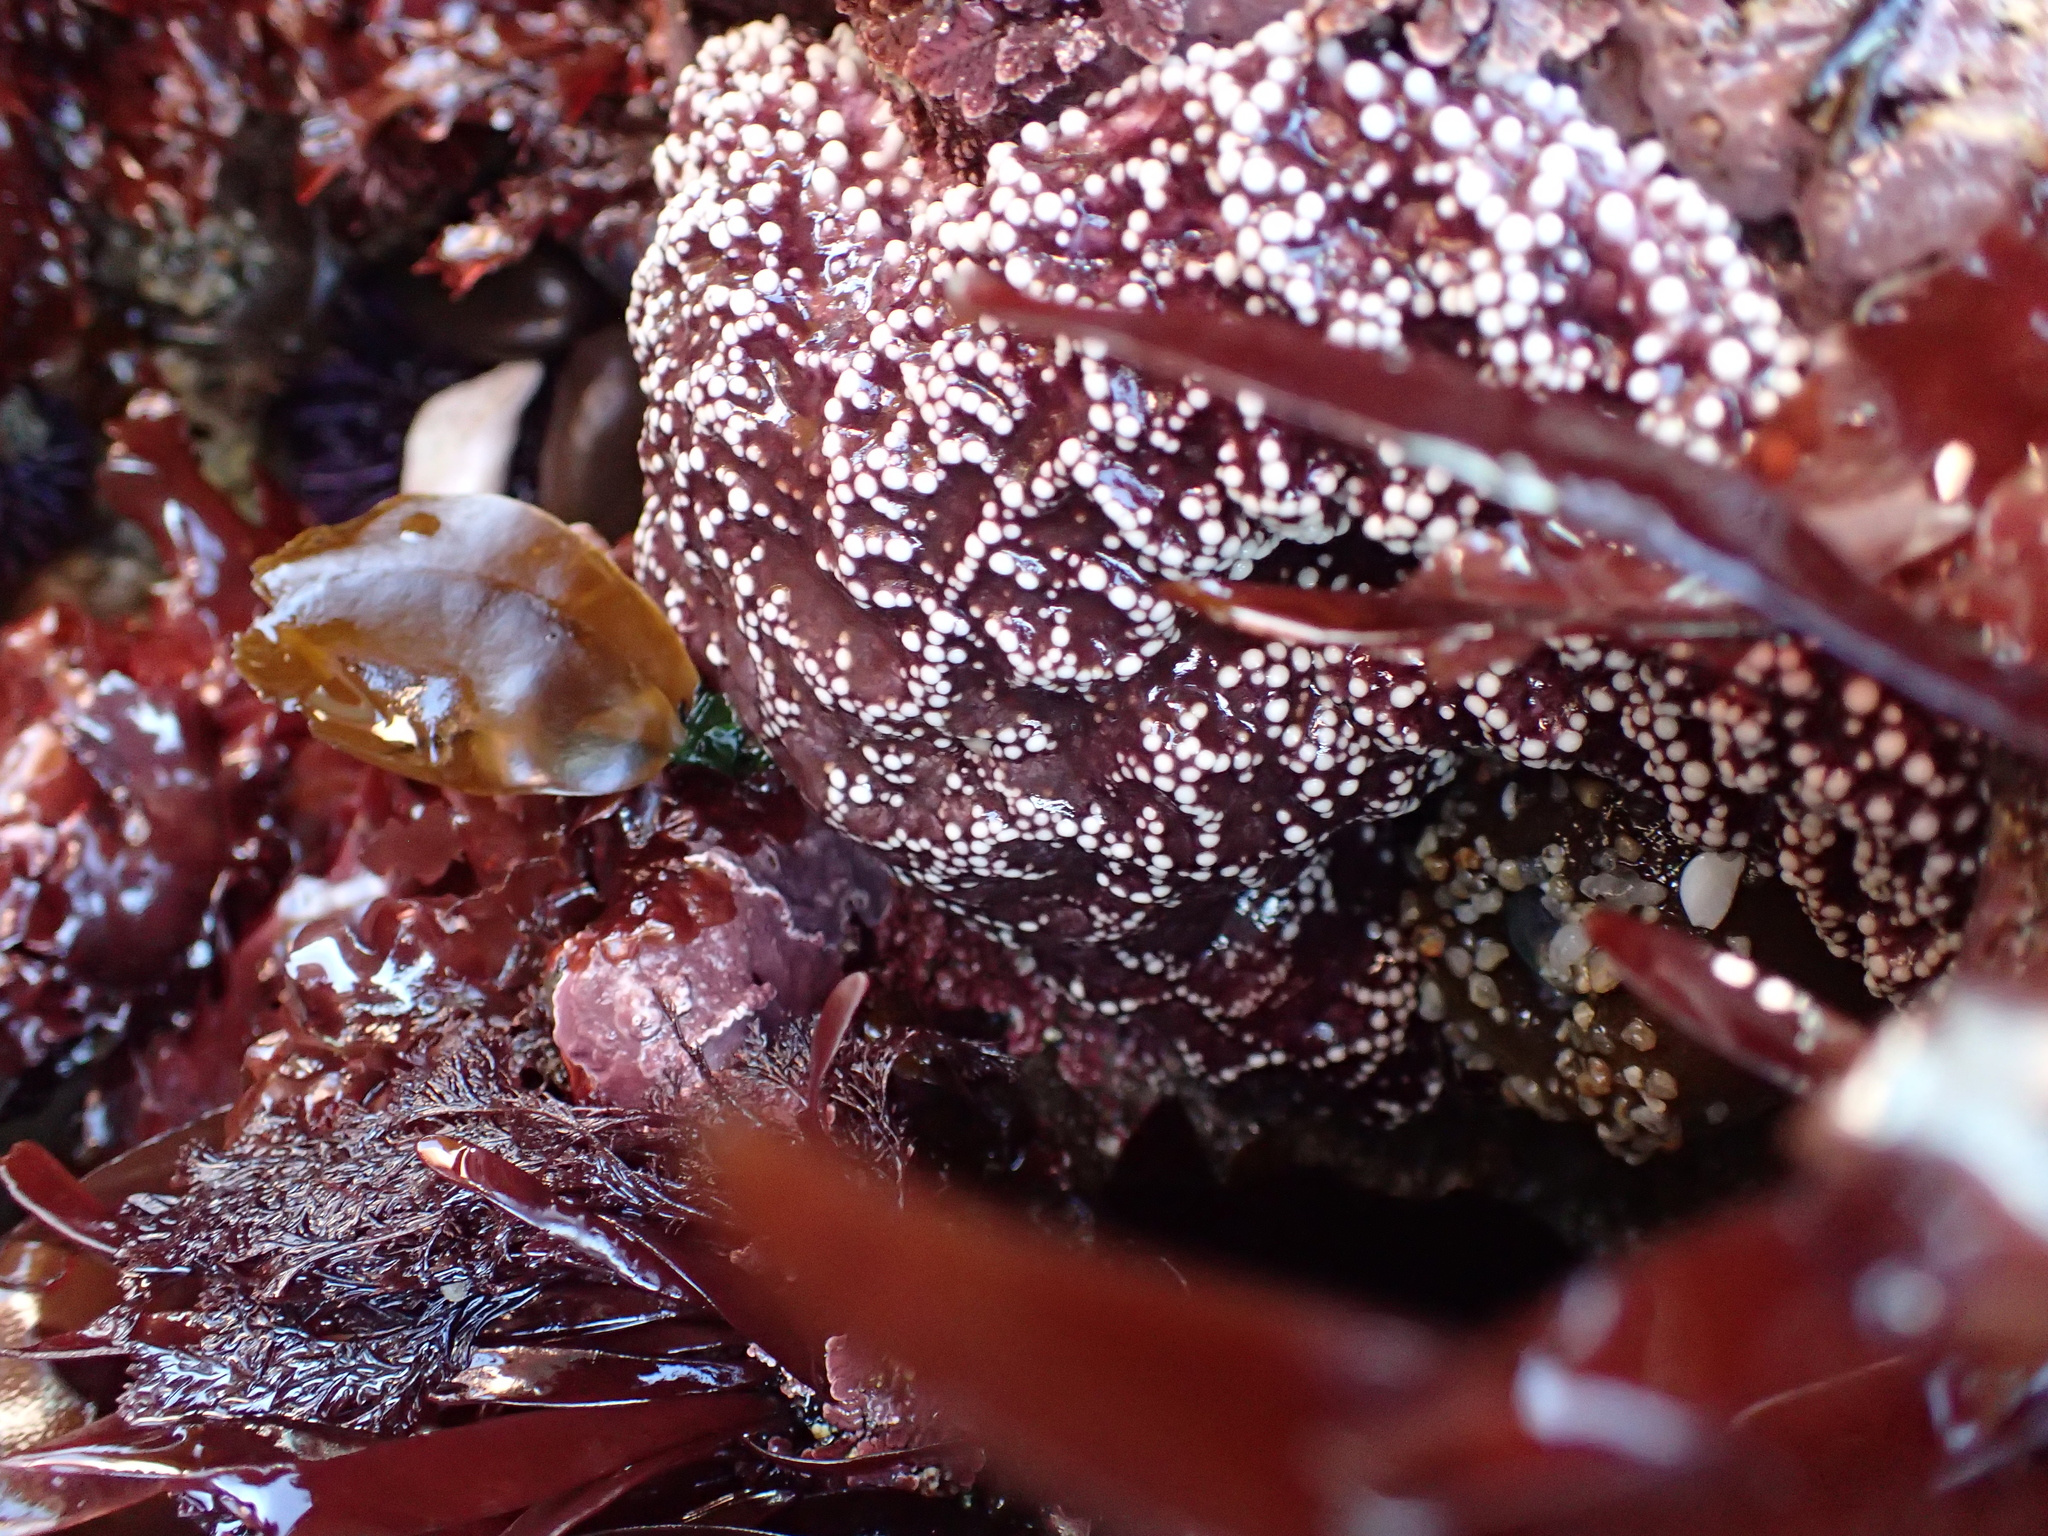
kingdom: Animalia
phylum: Echinodermata
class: Asteroidea
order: Forcipulatida
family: Asteriidae
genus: Pisaster
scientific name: Pisaster ochraceus
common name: Ochre stars
